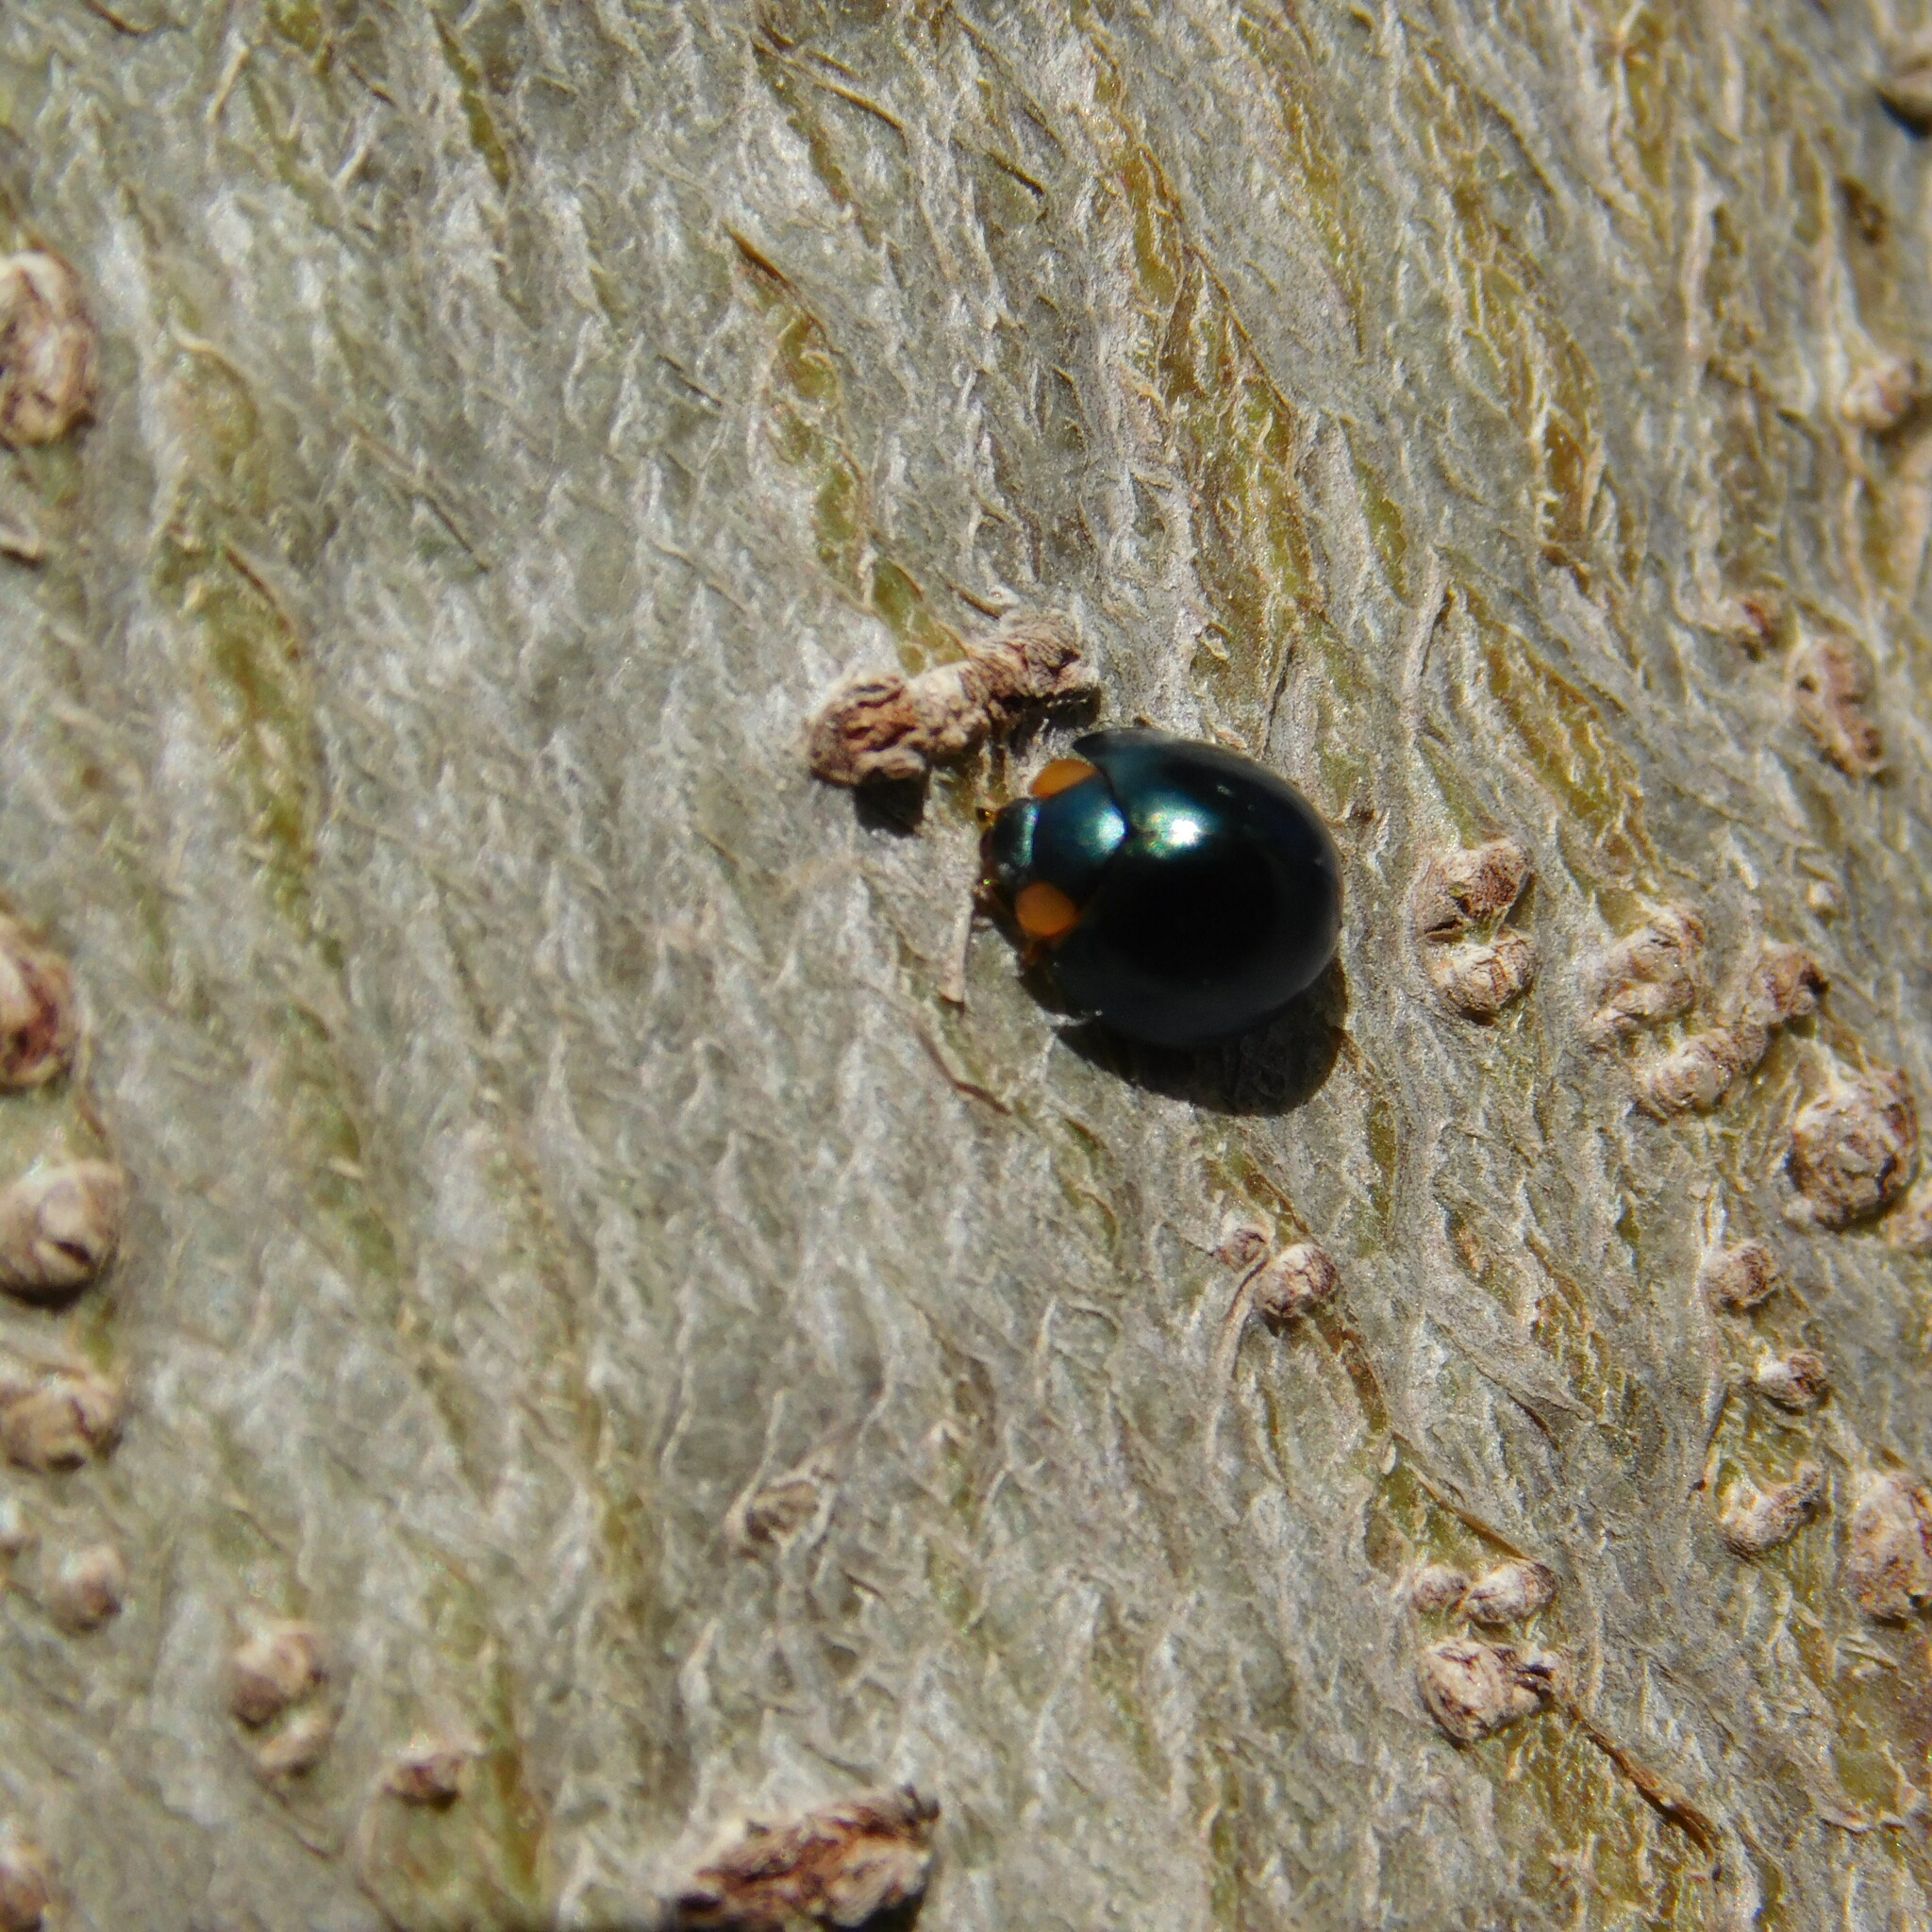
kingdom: Animalia
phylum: Arthropoda
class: Insecta
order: Coleoptera
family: Coccinellidae
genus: Curinus
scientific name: Curinus coeruleus
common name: Ladybird beetle
